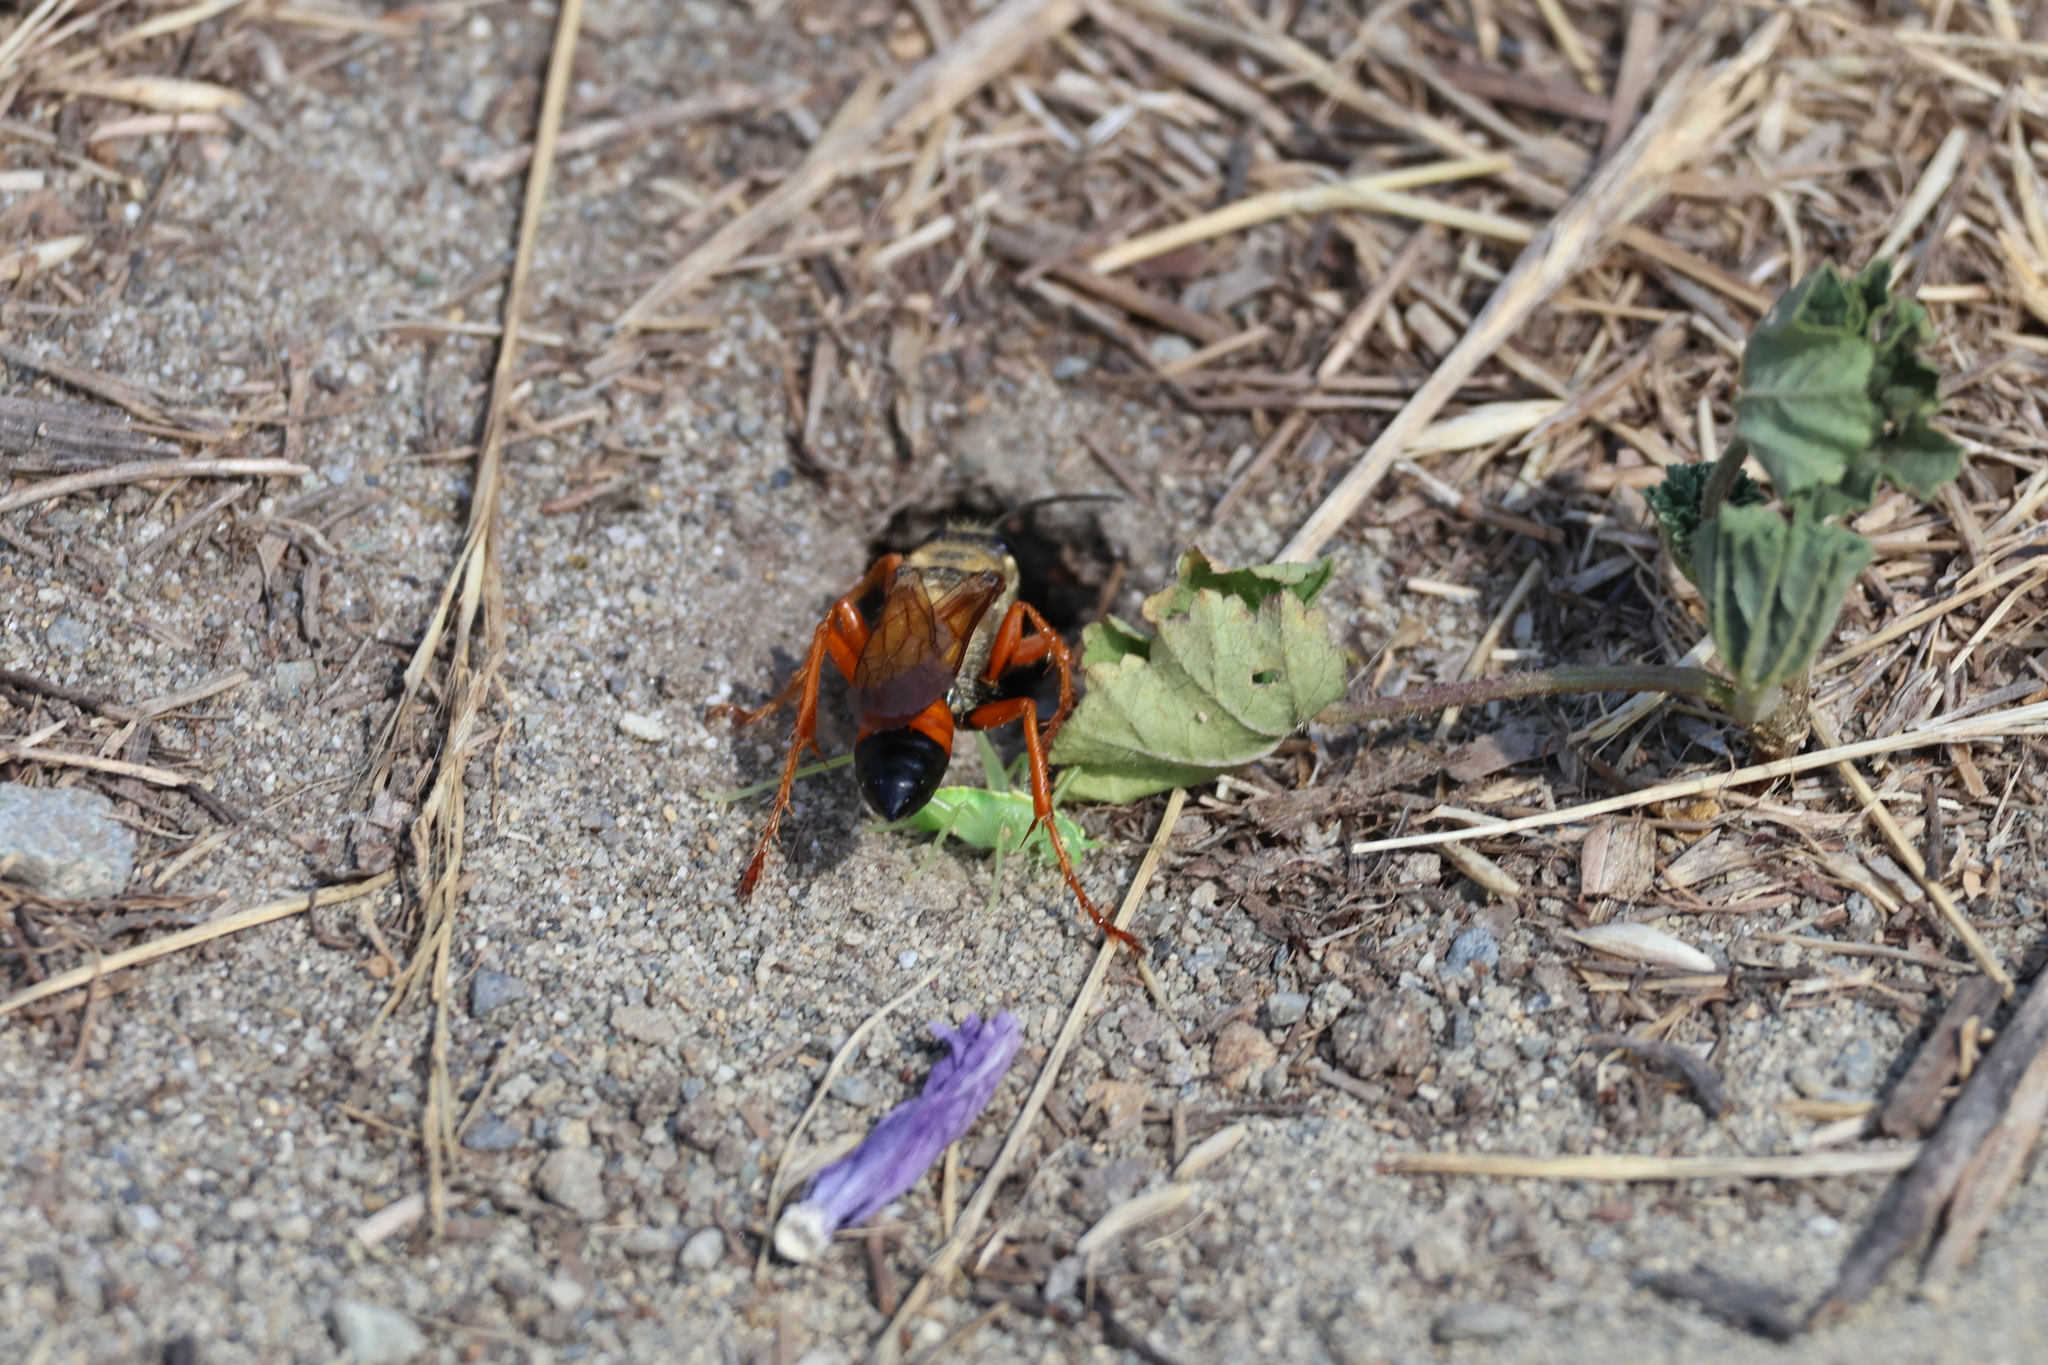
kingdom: Animalia
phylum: Arthropoda
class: Insecta
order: Hymenoptera
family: Sphecidae
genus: Sphex
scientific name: Sphex ichneumoneus
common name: Great golden digger wasp
